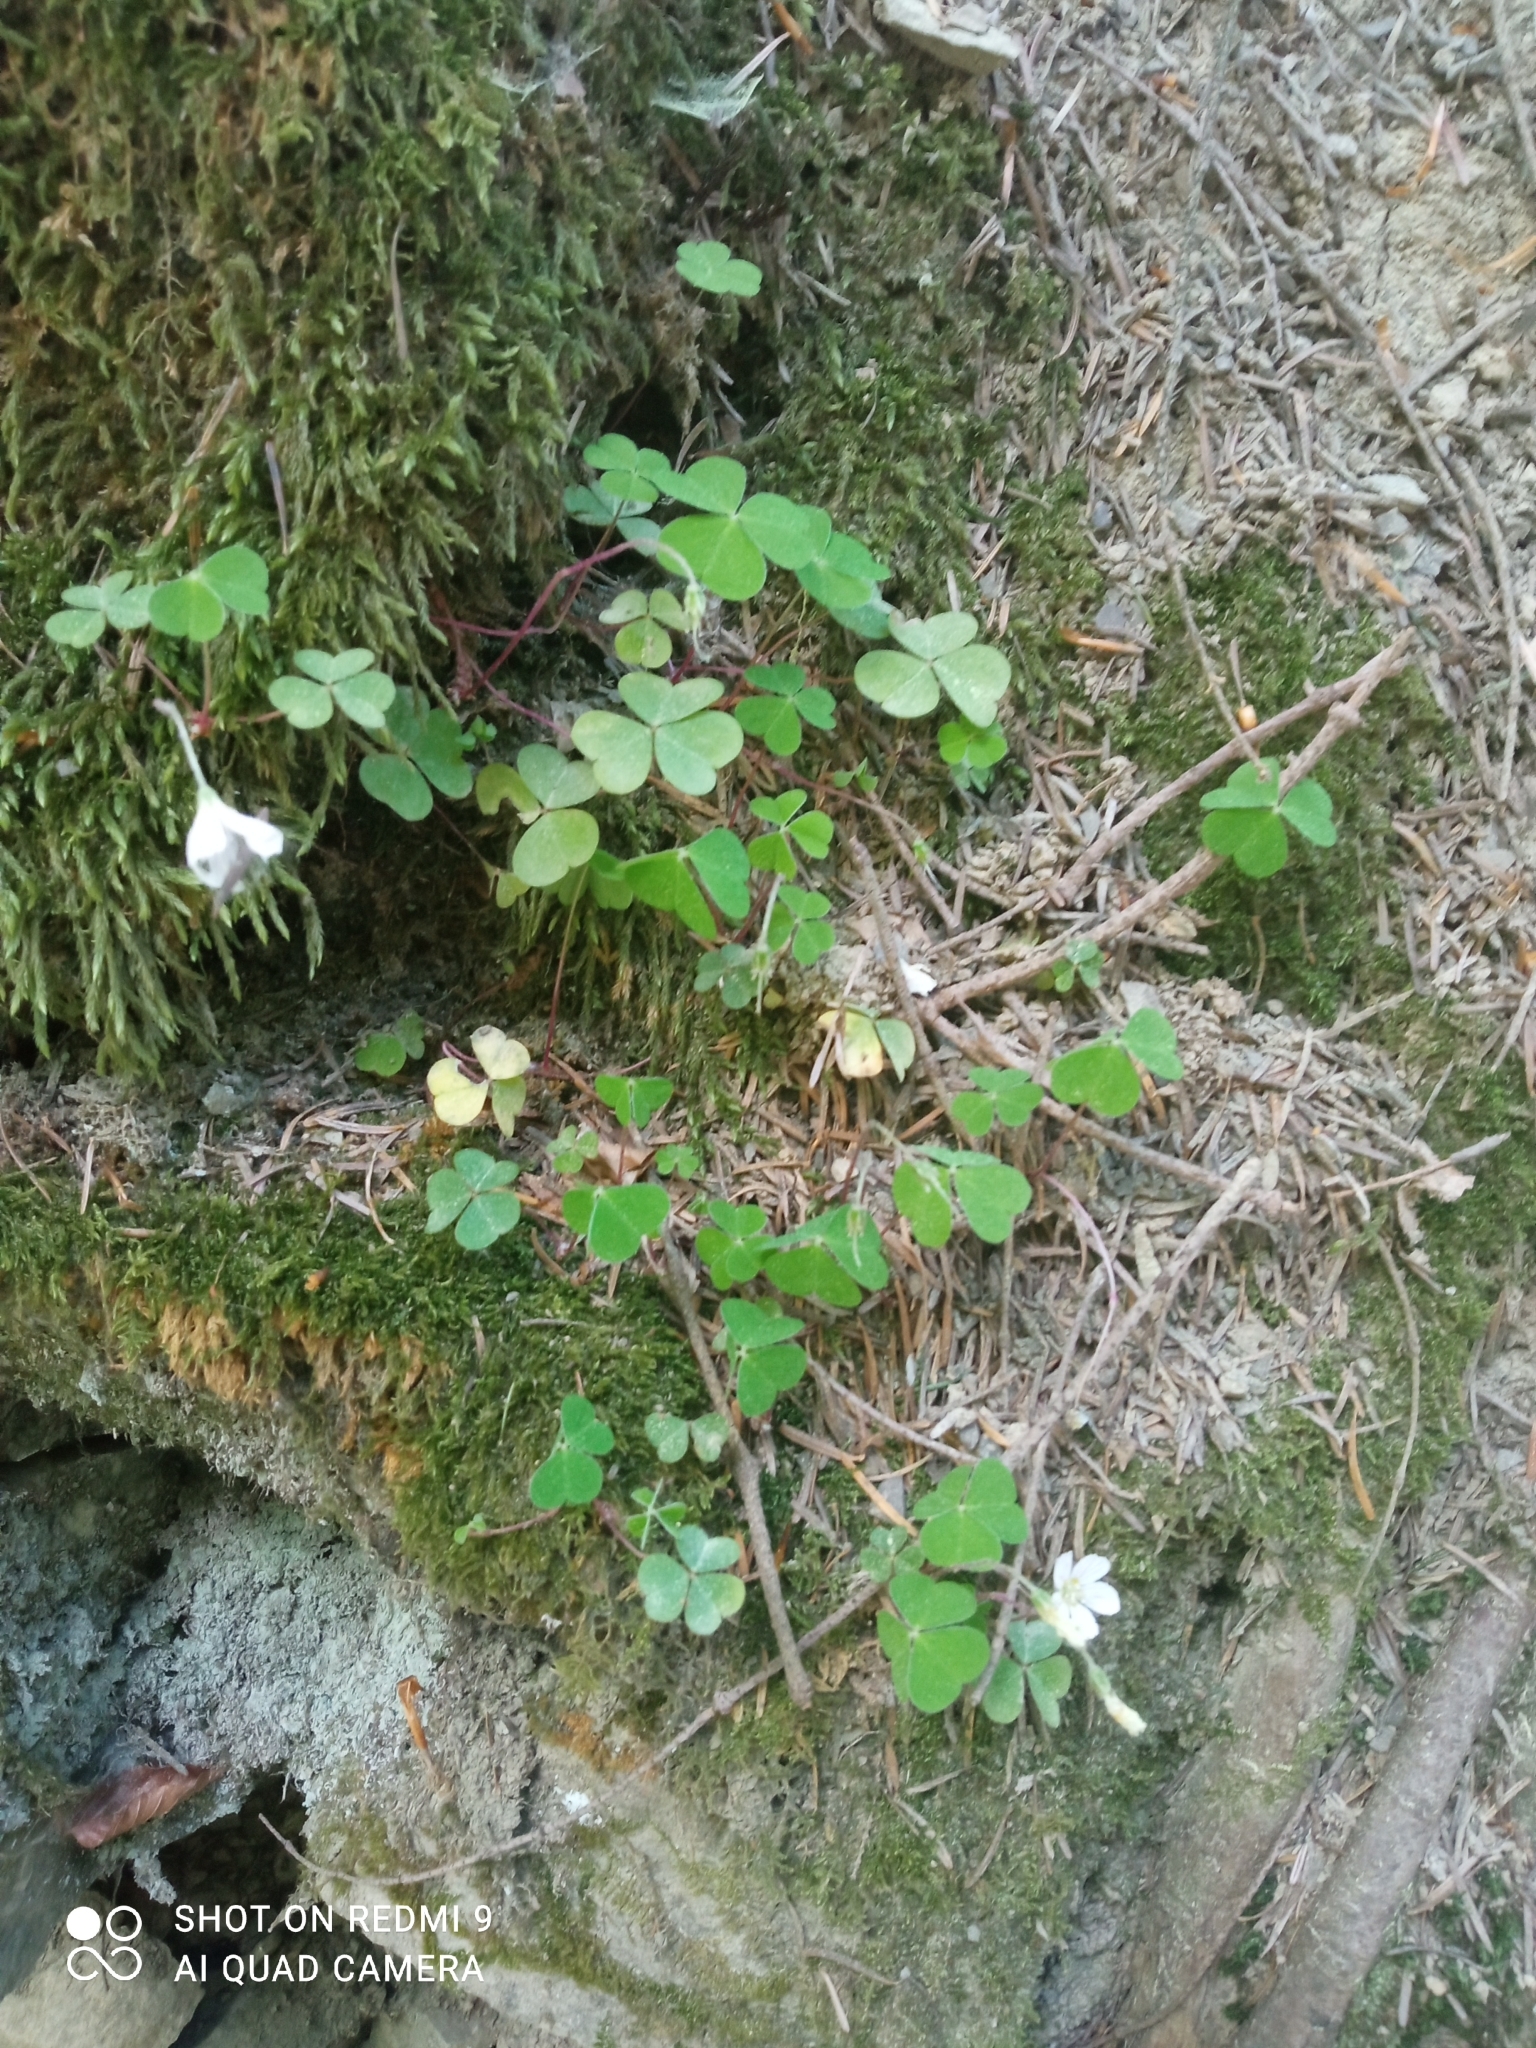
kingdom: Plantae
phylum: Tracheophyta
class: Magnoliopsida
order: Oxalidales
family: Oxalidaceae
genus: Oxalis
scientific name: Oxalis acetosella
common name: Wood-sorrel
